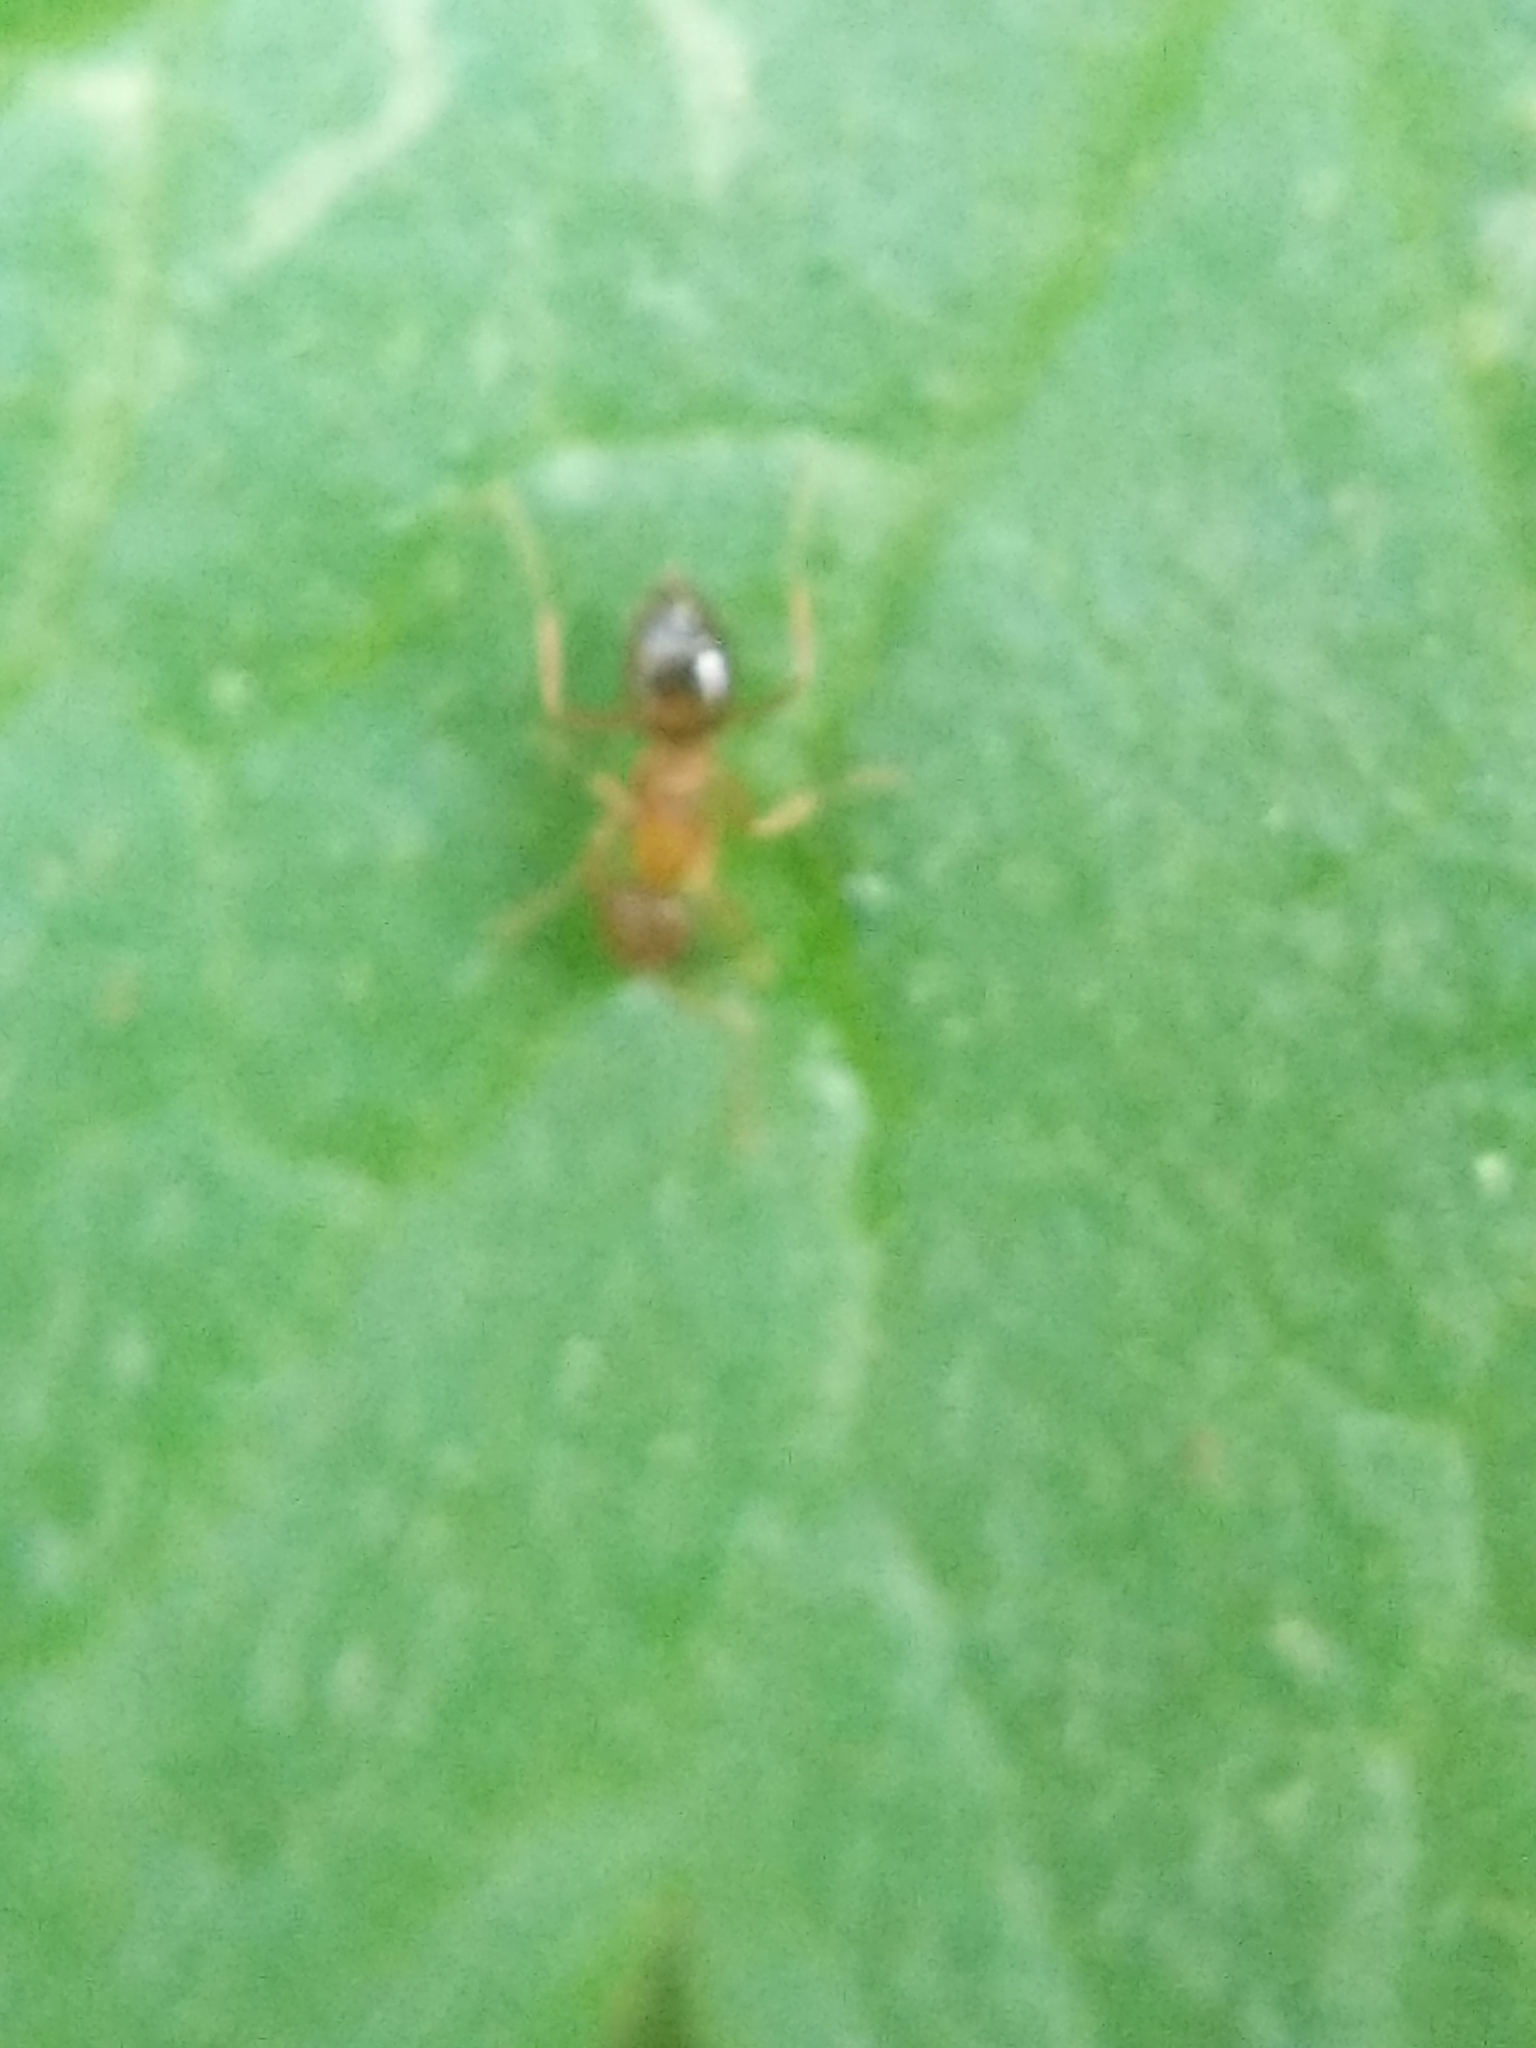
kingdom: Animalia
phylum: Arthropoda
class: Insecta
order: Hymenoptera
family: Formicidae
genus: Paratrechina
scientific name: Paratrechina flavipes
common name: Eastern asian formicine ant
